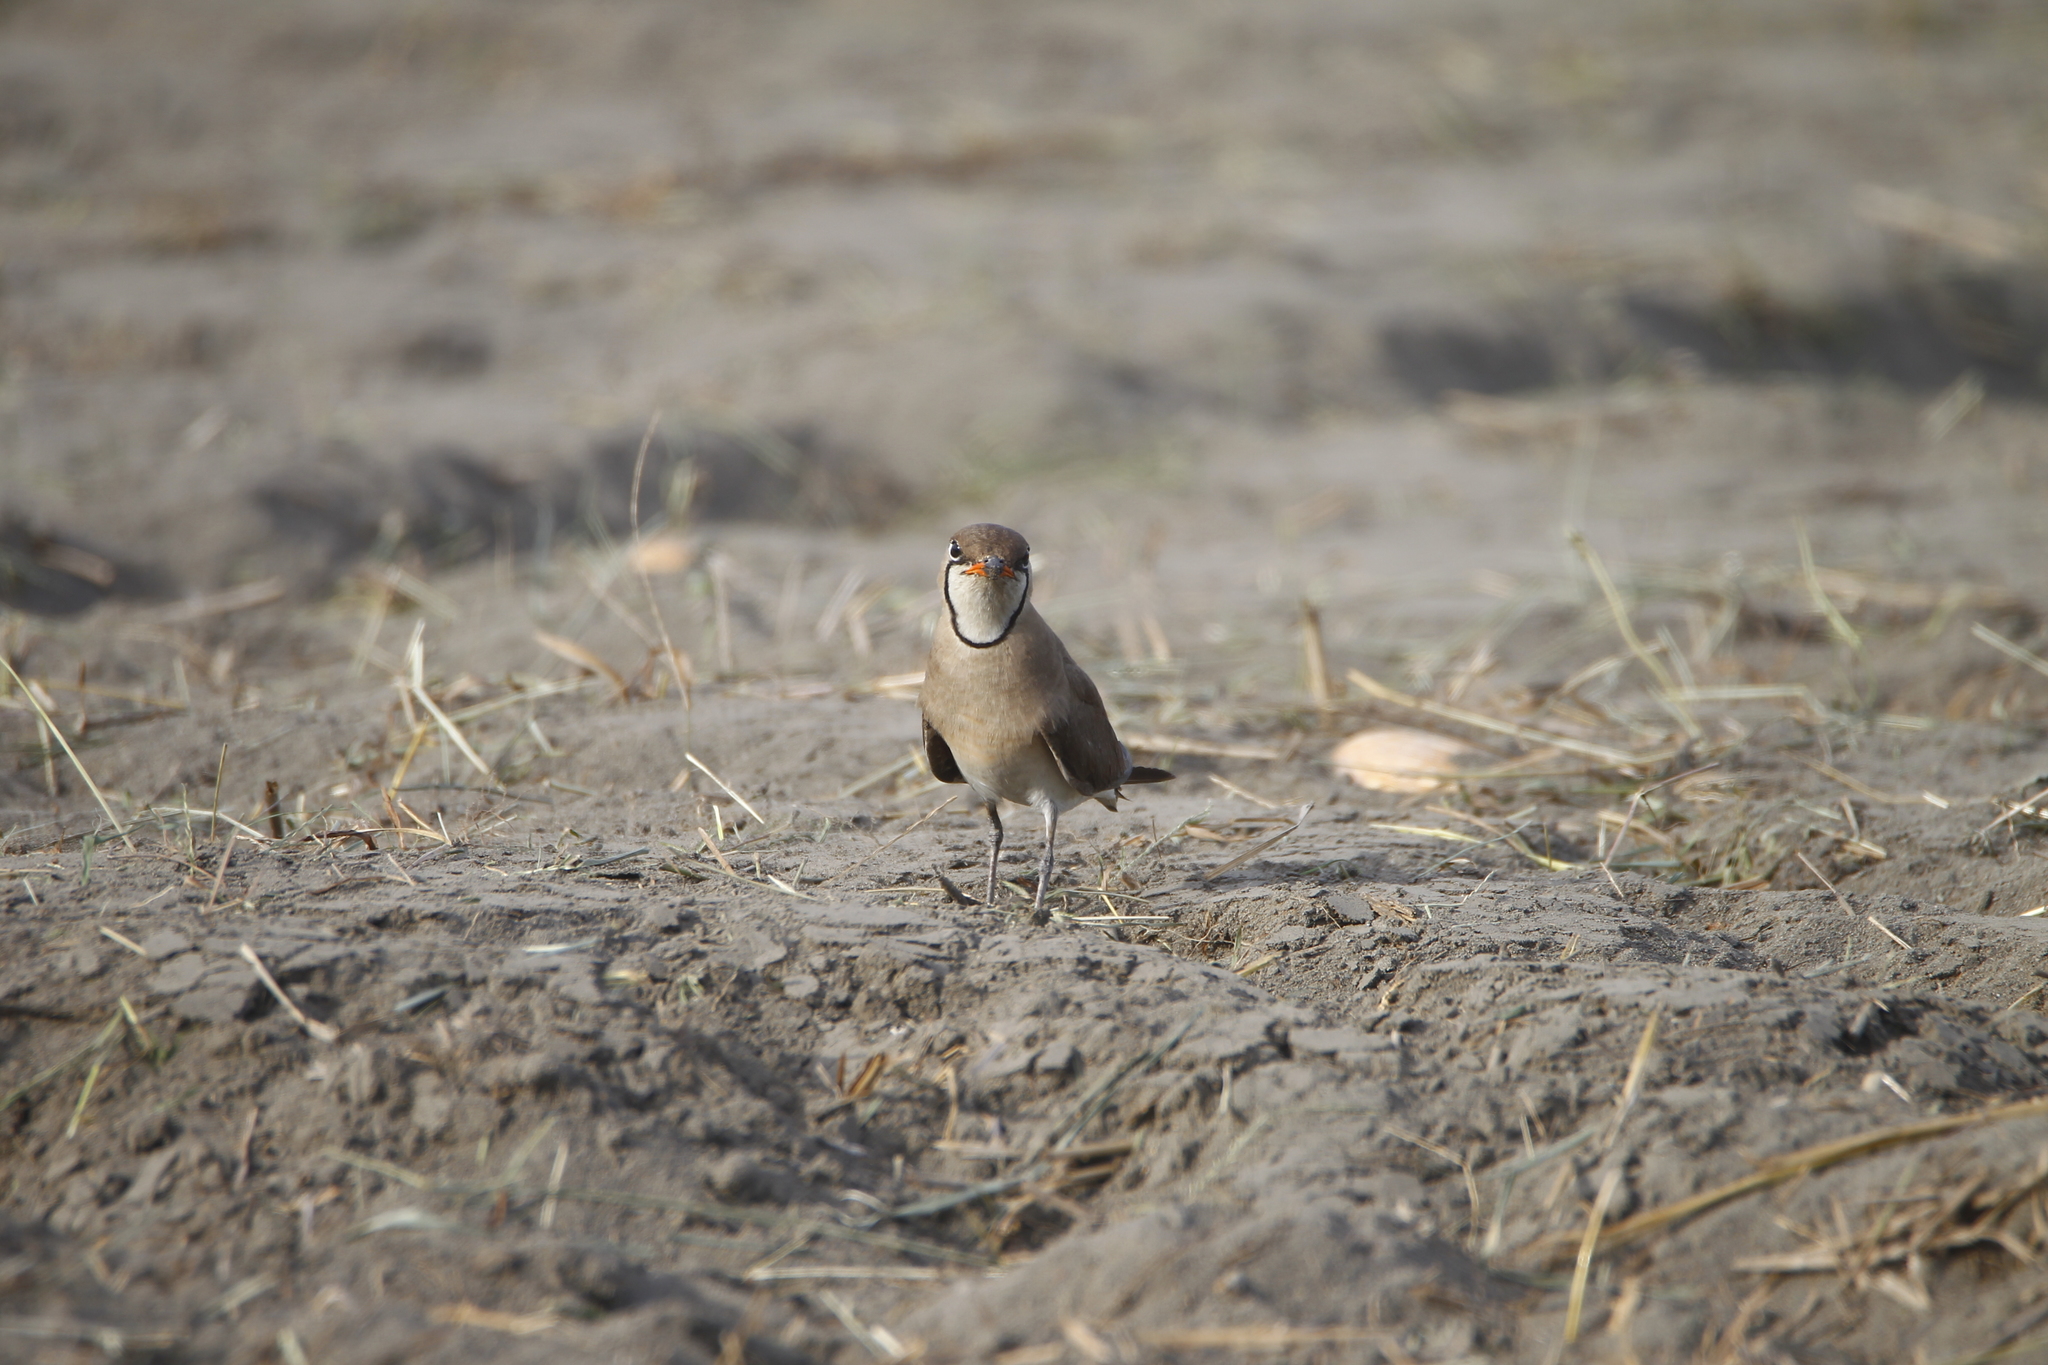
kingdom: Animalia
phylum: Chordata
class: Aves
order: Charadriiformes
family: Glareolidae
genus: Glareola
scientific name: Glareola maldivarum
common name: Oriental pratincole
